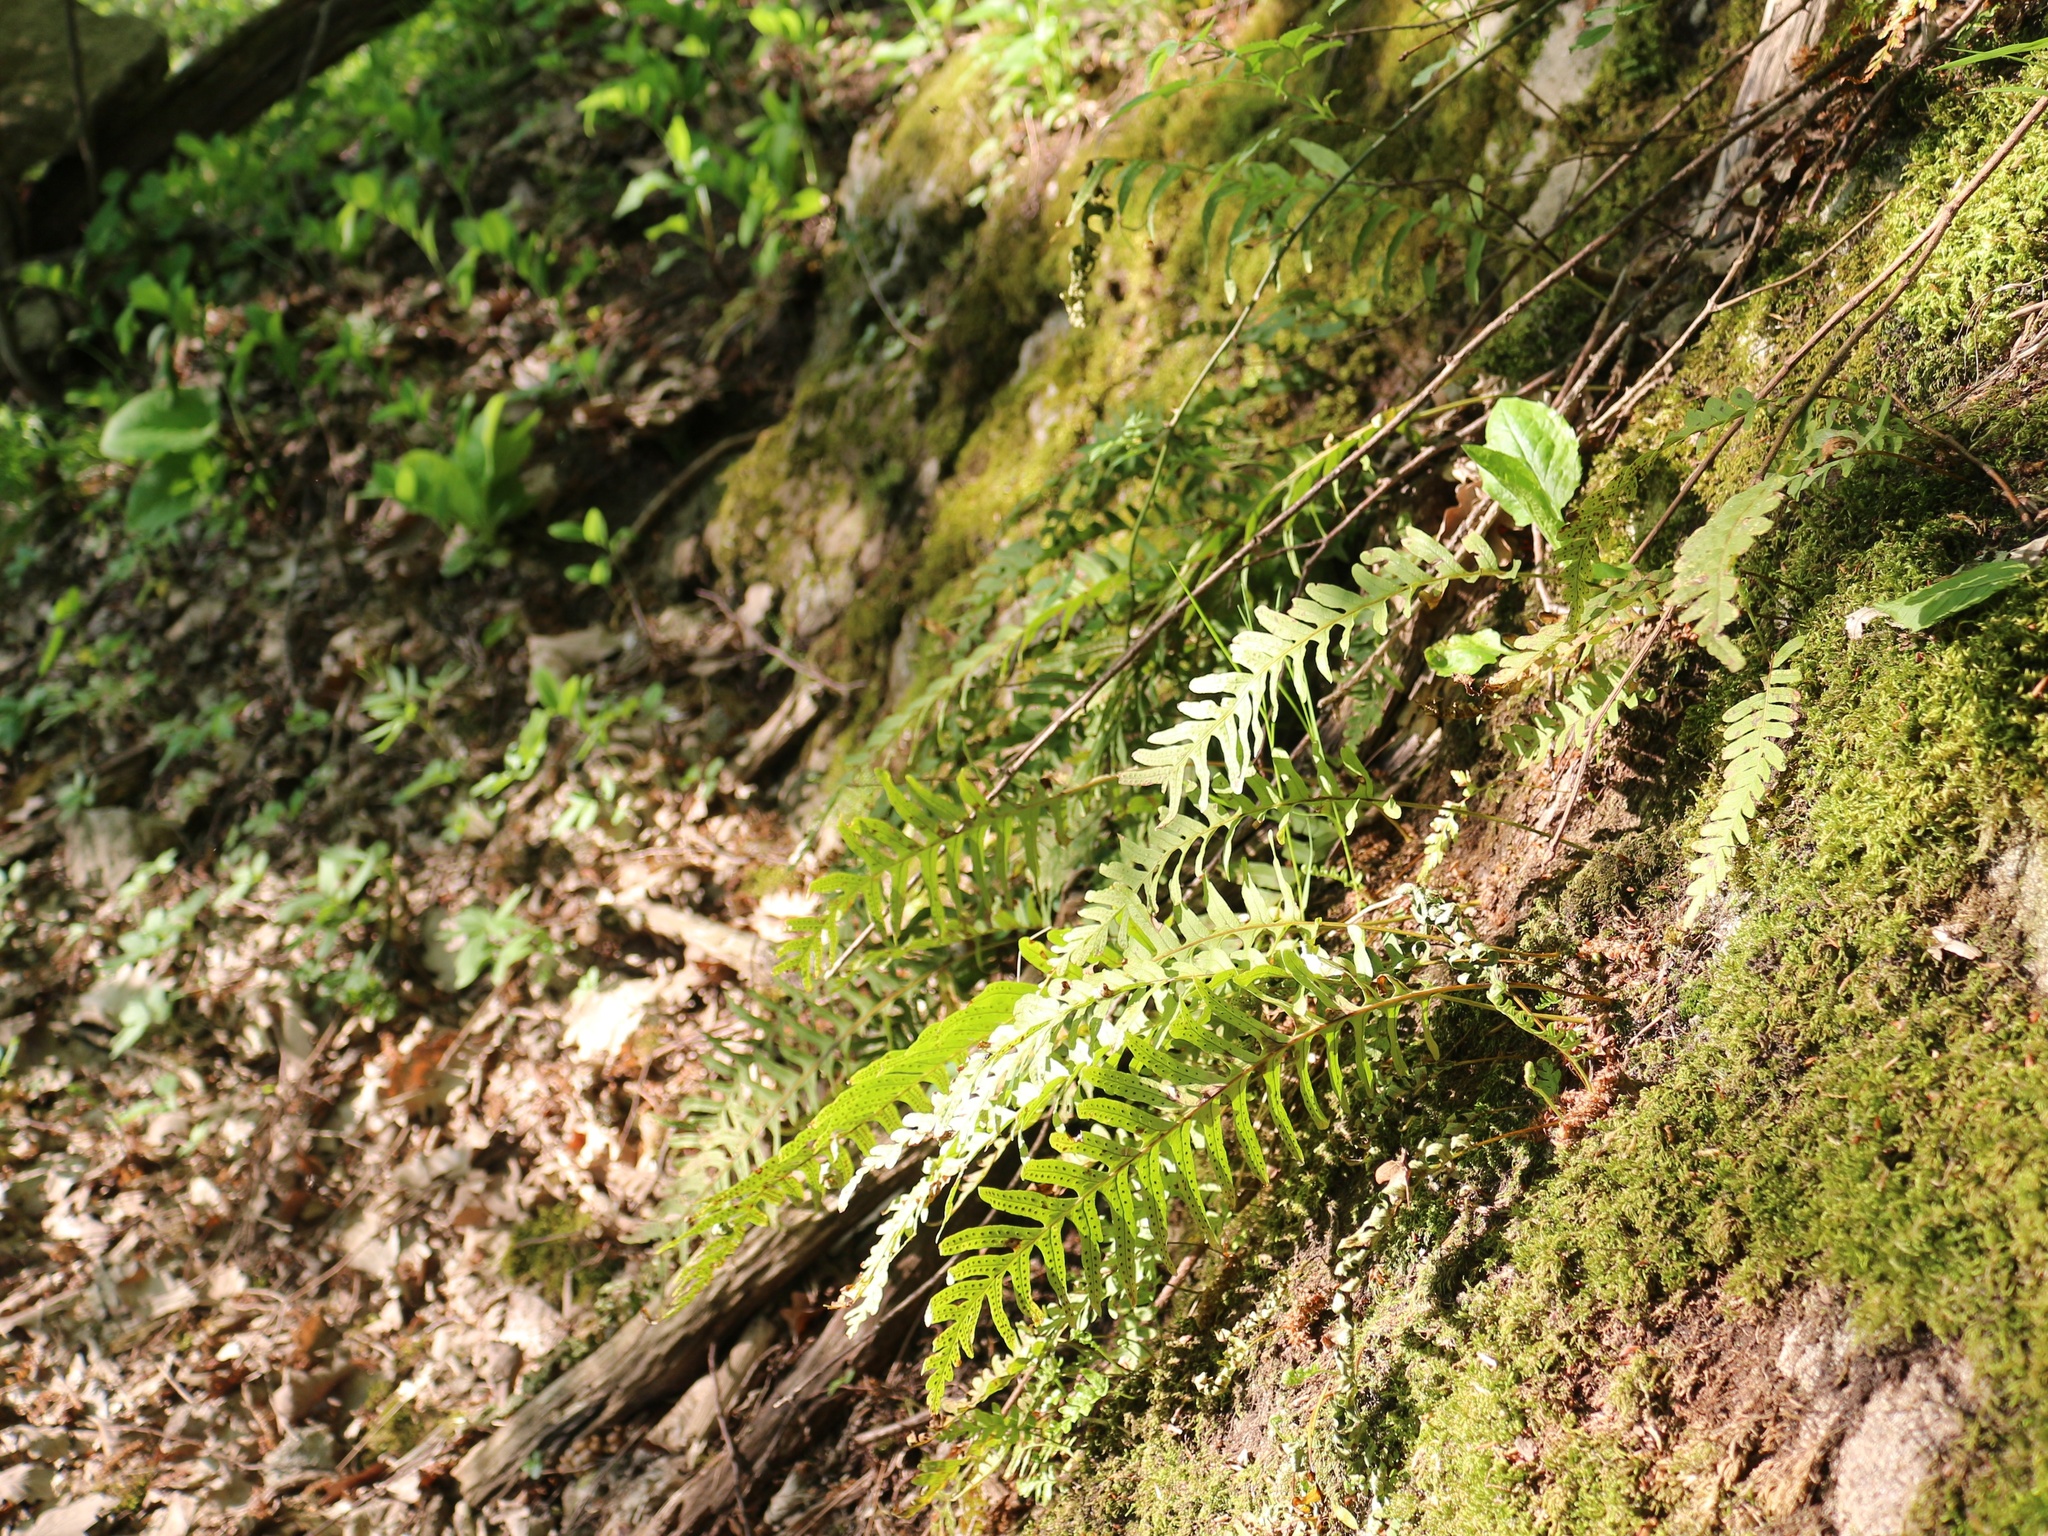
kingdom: Plantae
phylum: Tracheophyta
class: Polypodiopsida
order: Polypodiales
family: Polypodiaceae
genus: Polypodium
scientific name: Polypodium vulgare
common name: Common polypody
